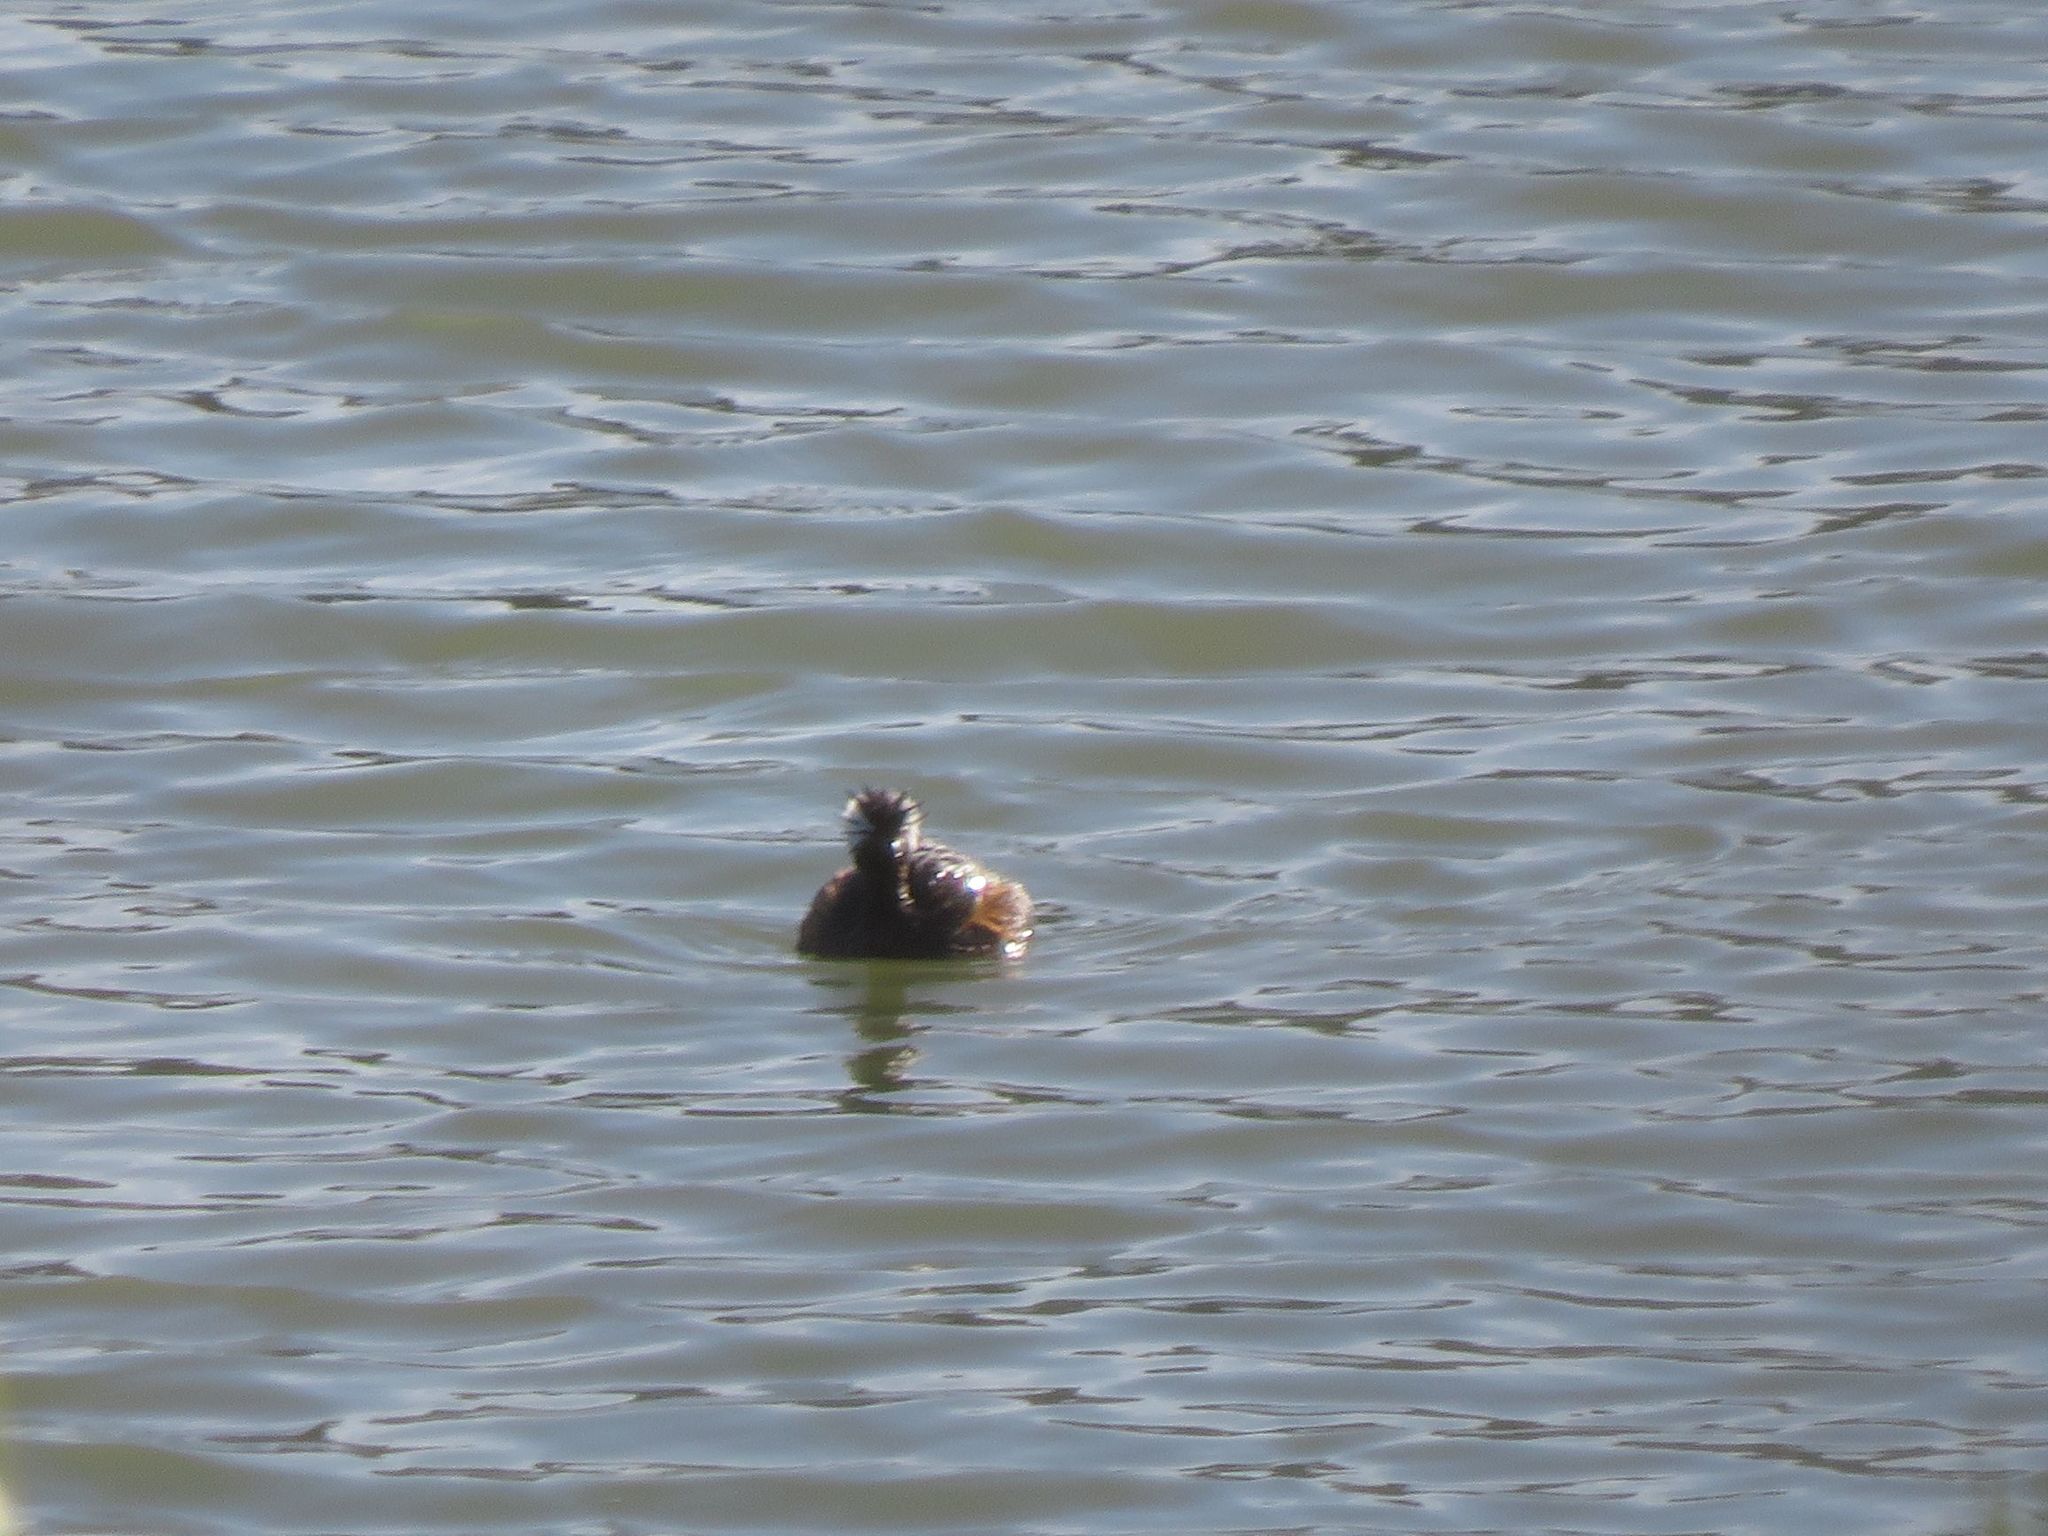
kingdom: Animalia
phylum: Chordata
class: Aves
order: Podicipediformes
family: Podicipedidae
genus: Rollandia
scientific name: Rollandia rolland
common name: White-tufted grebe
